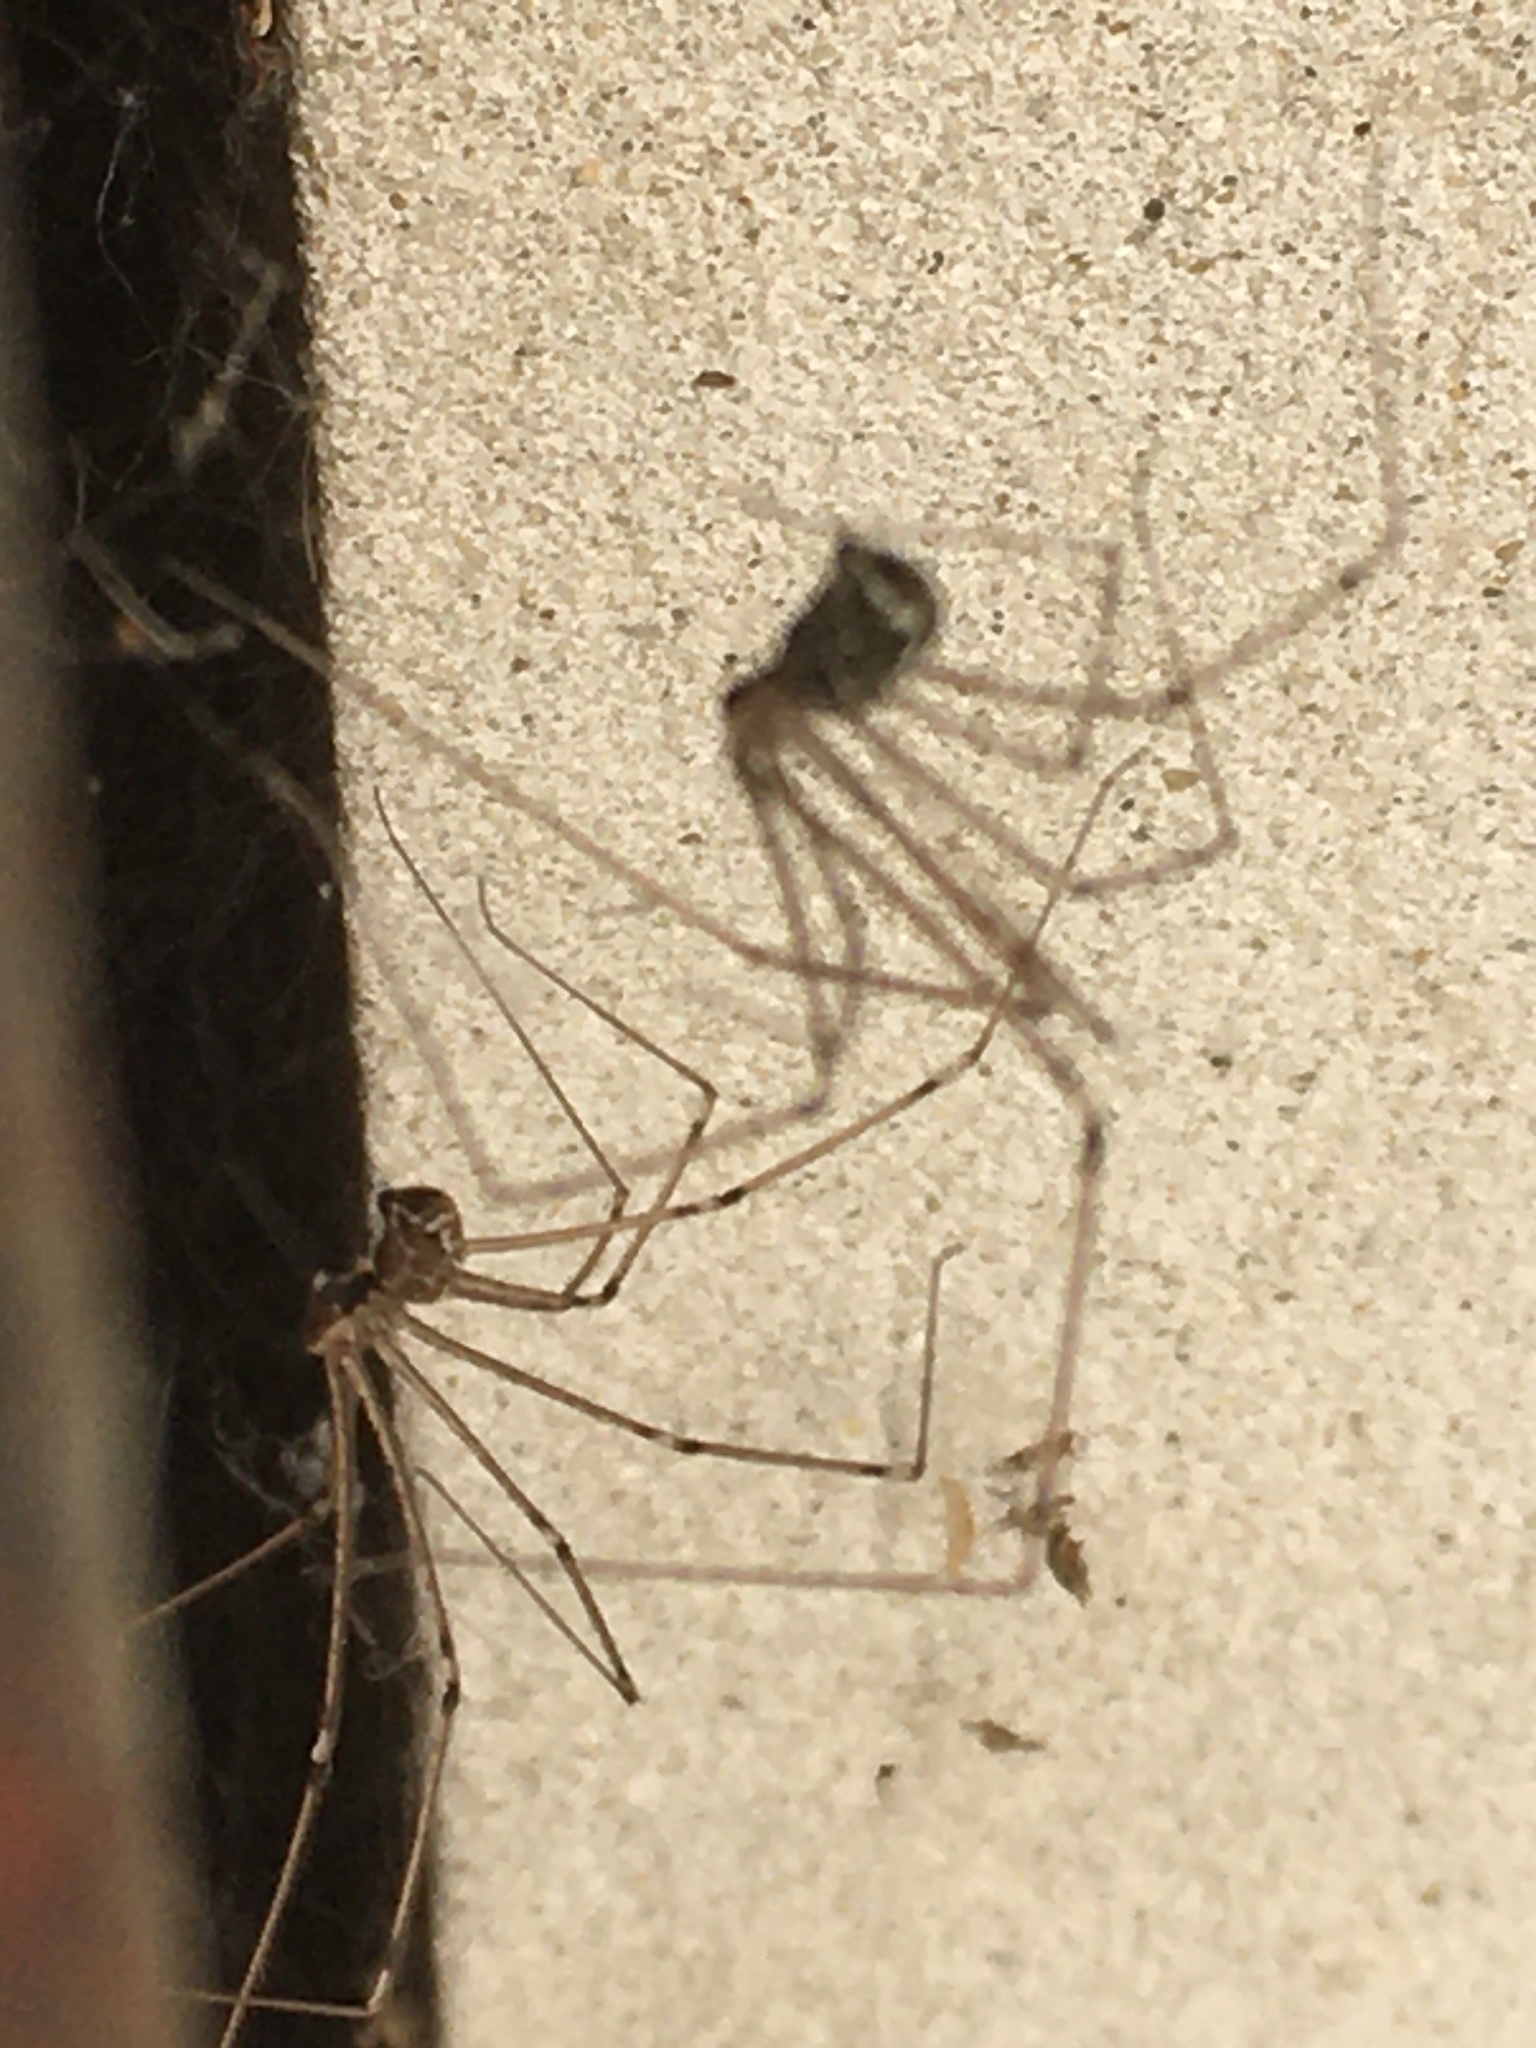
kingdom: Animalia
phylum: Arthropoda
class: Arachnida
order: Araneae
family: Pholcidae
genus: Holocnemus
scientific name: Holocnemus pluchei
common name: Marbled cellar spider
